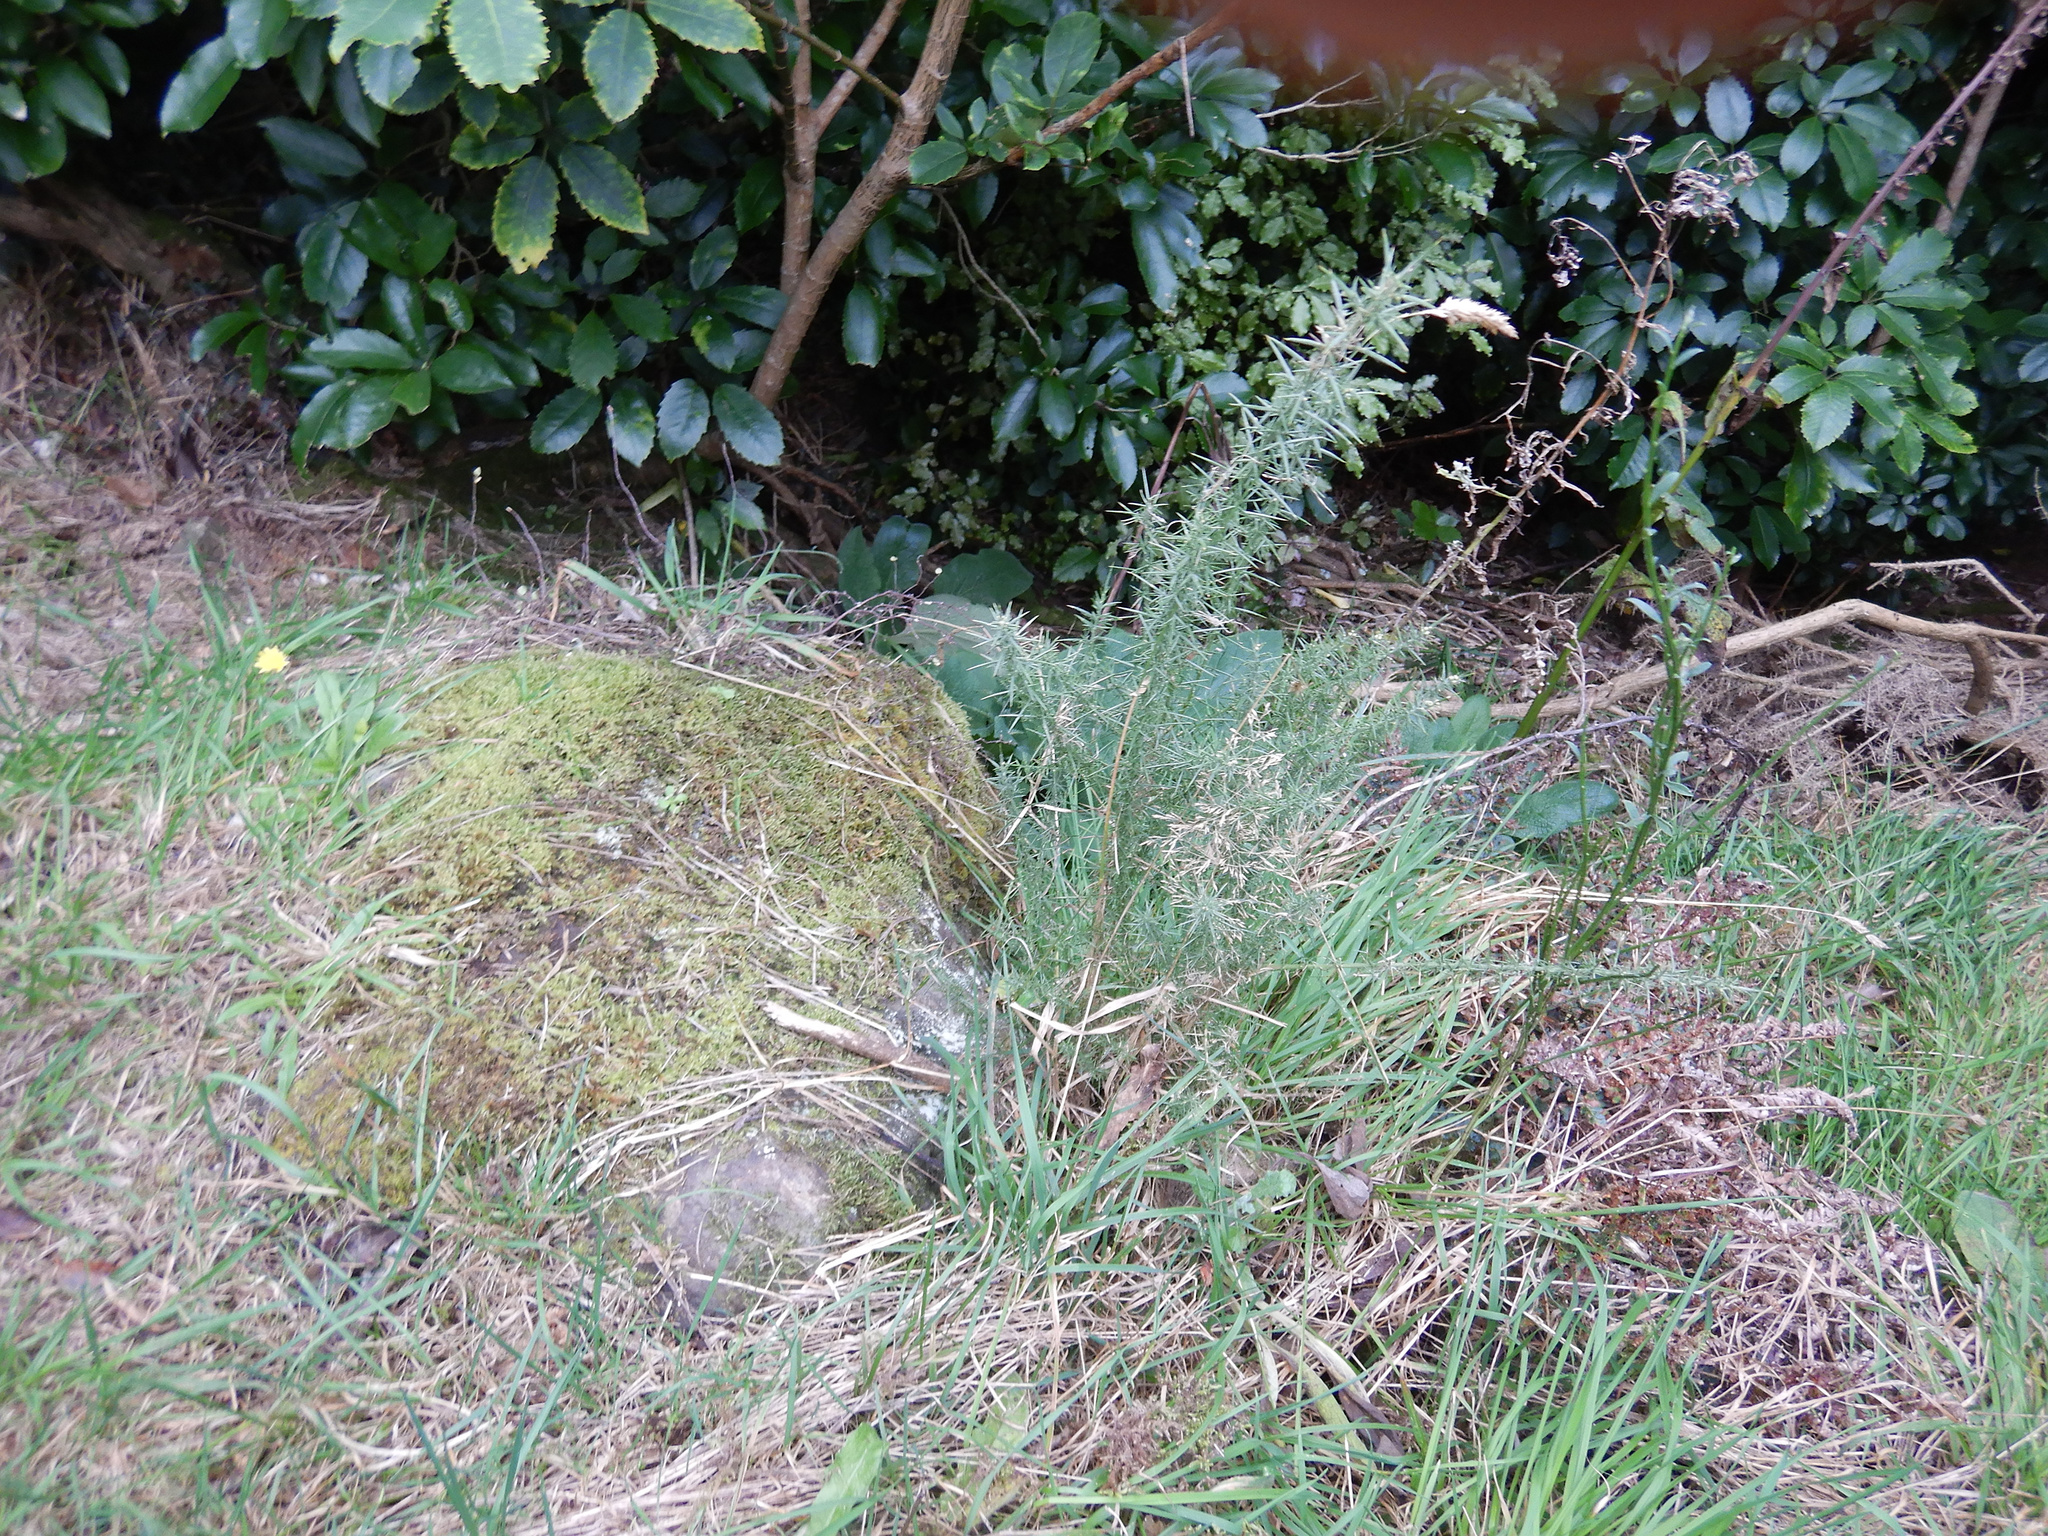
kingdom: Plantae
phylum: Tracheophyta
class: Magnoliopsida
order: Fabales
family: Fabaceae
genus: Ulex
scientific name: Ulex europaeus
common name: Common gorse
